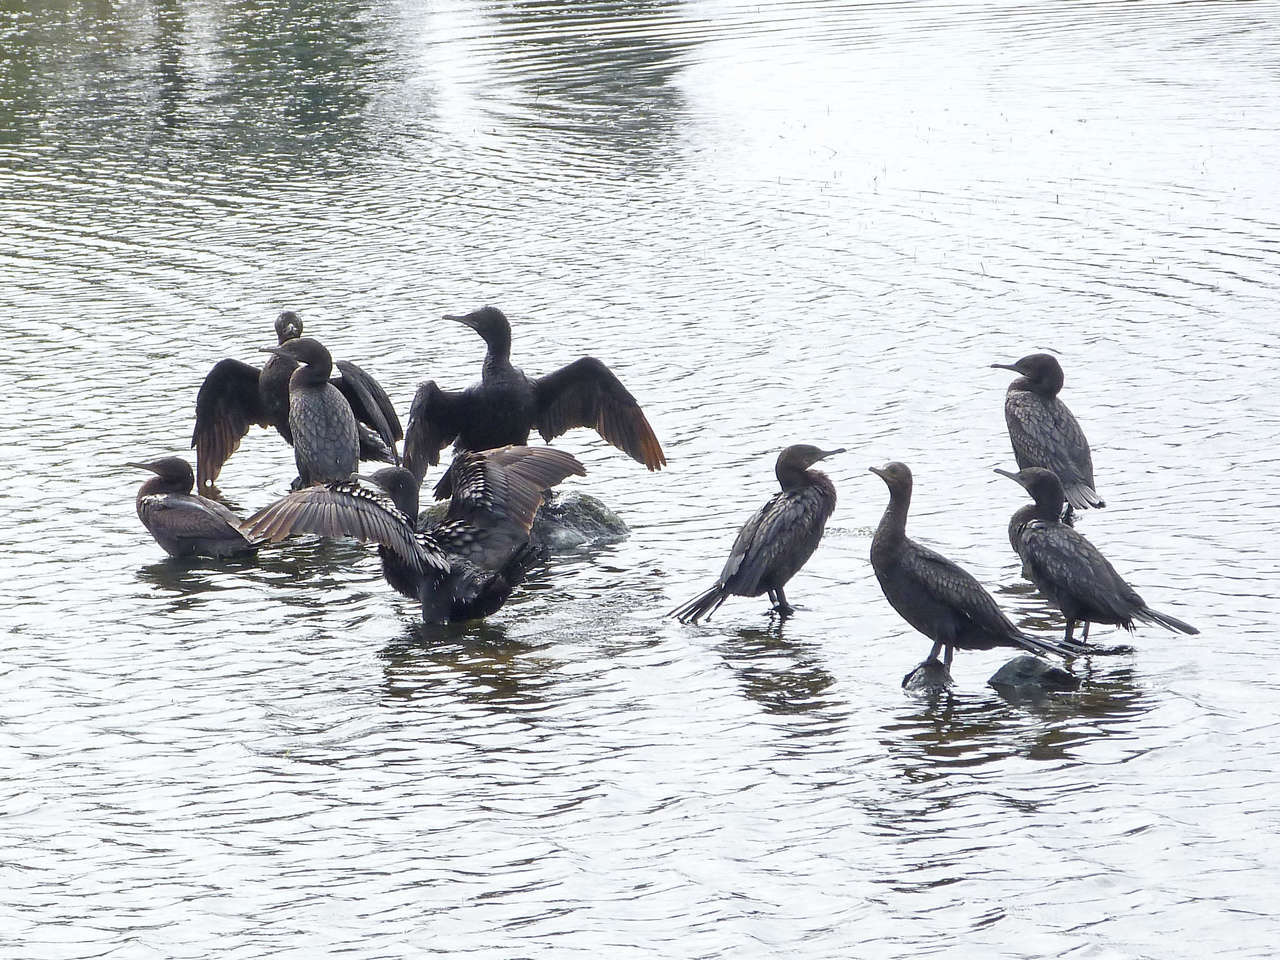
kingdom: Animalia
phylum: Chordata
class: Aves
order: Suliformes
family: Phalacrocoracidae
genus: Phalacrocorax
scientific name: Phalacrocorax sulcirostris
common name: Little black cormorant
